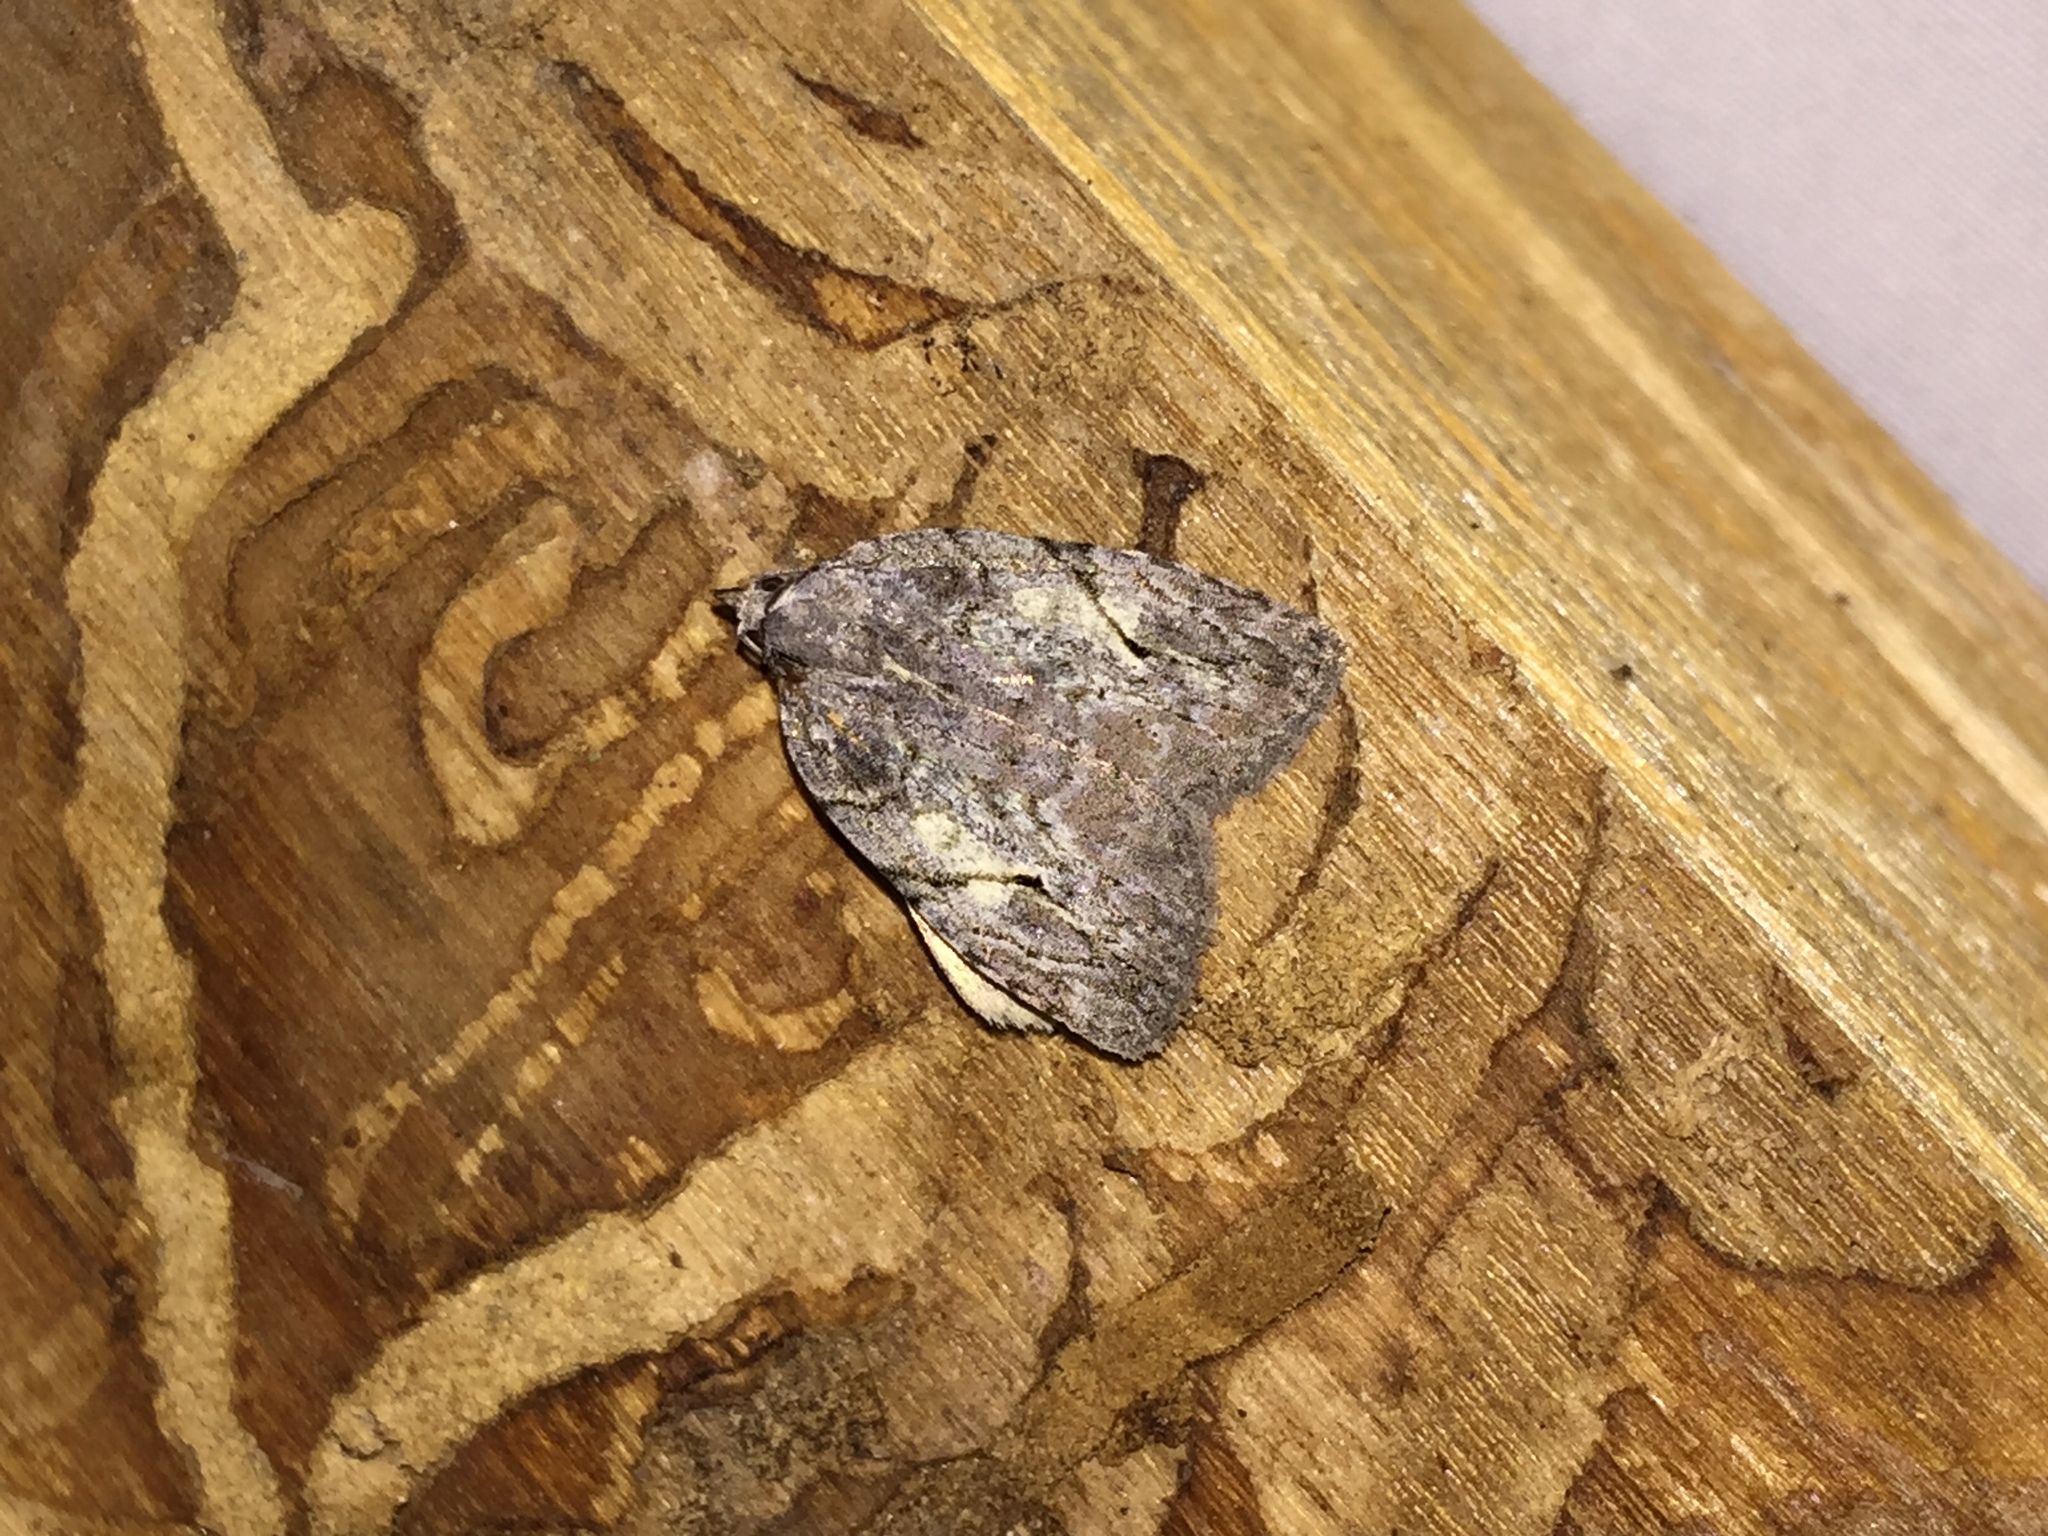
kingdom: Animalia
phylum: Arthropoda
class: Insecta
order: Lepidoptera
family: Noctuidae
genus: Balsa
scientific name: Balsa labecula
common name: White-blotched balsa moth
